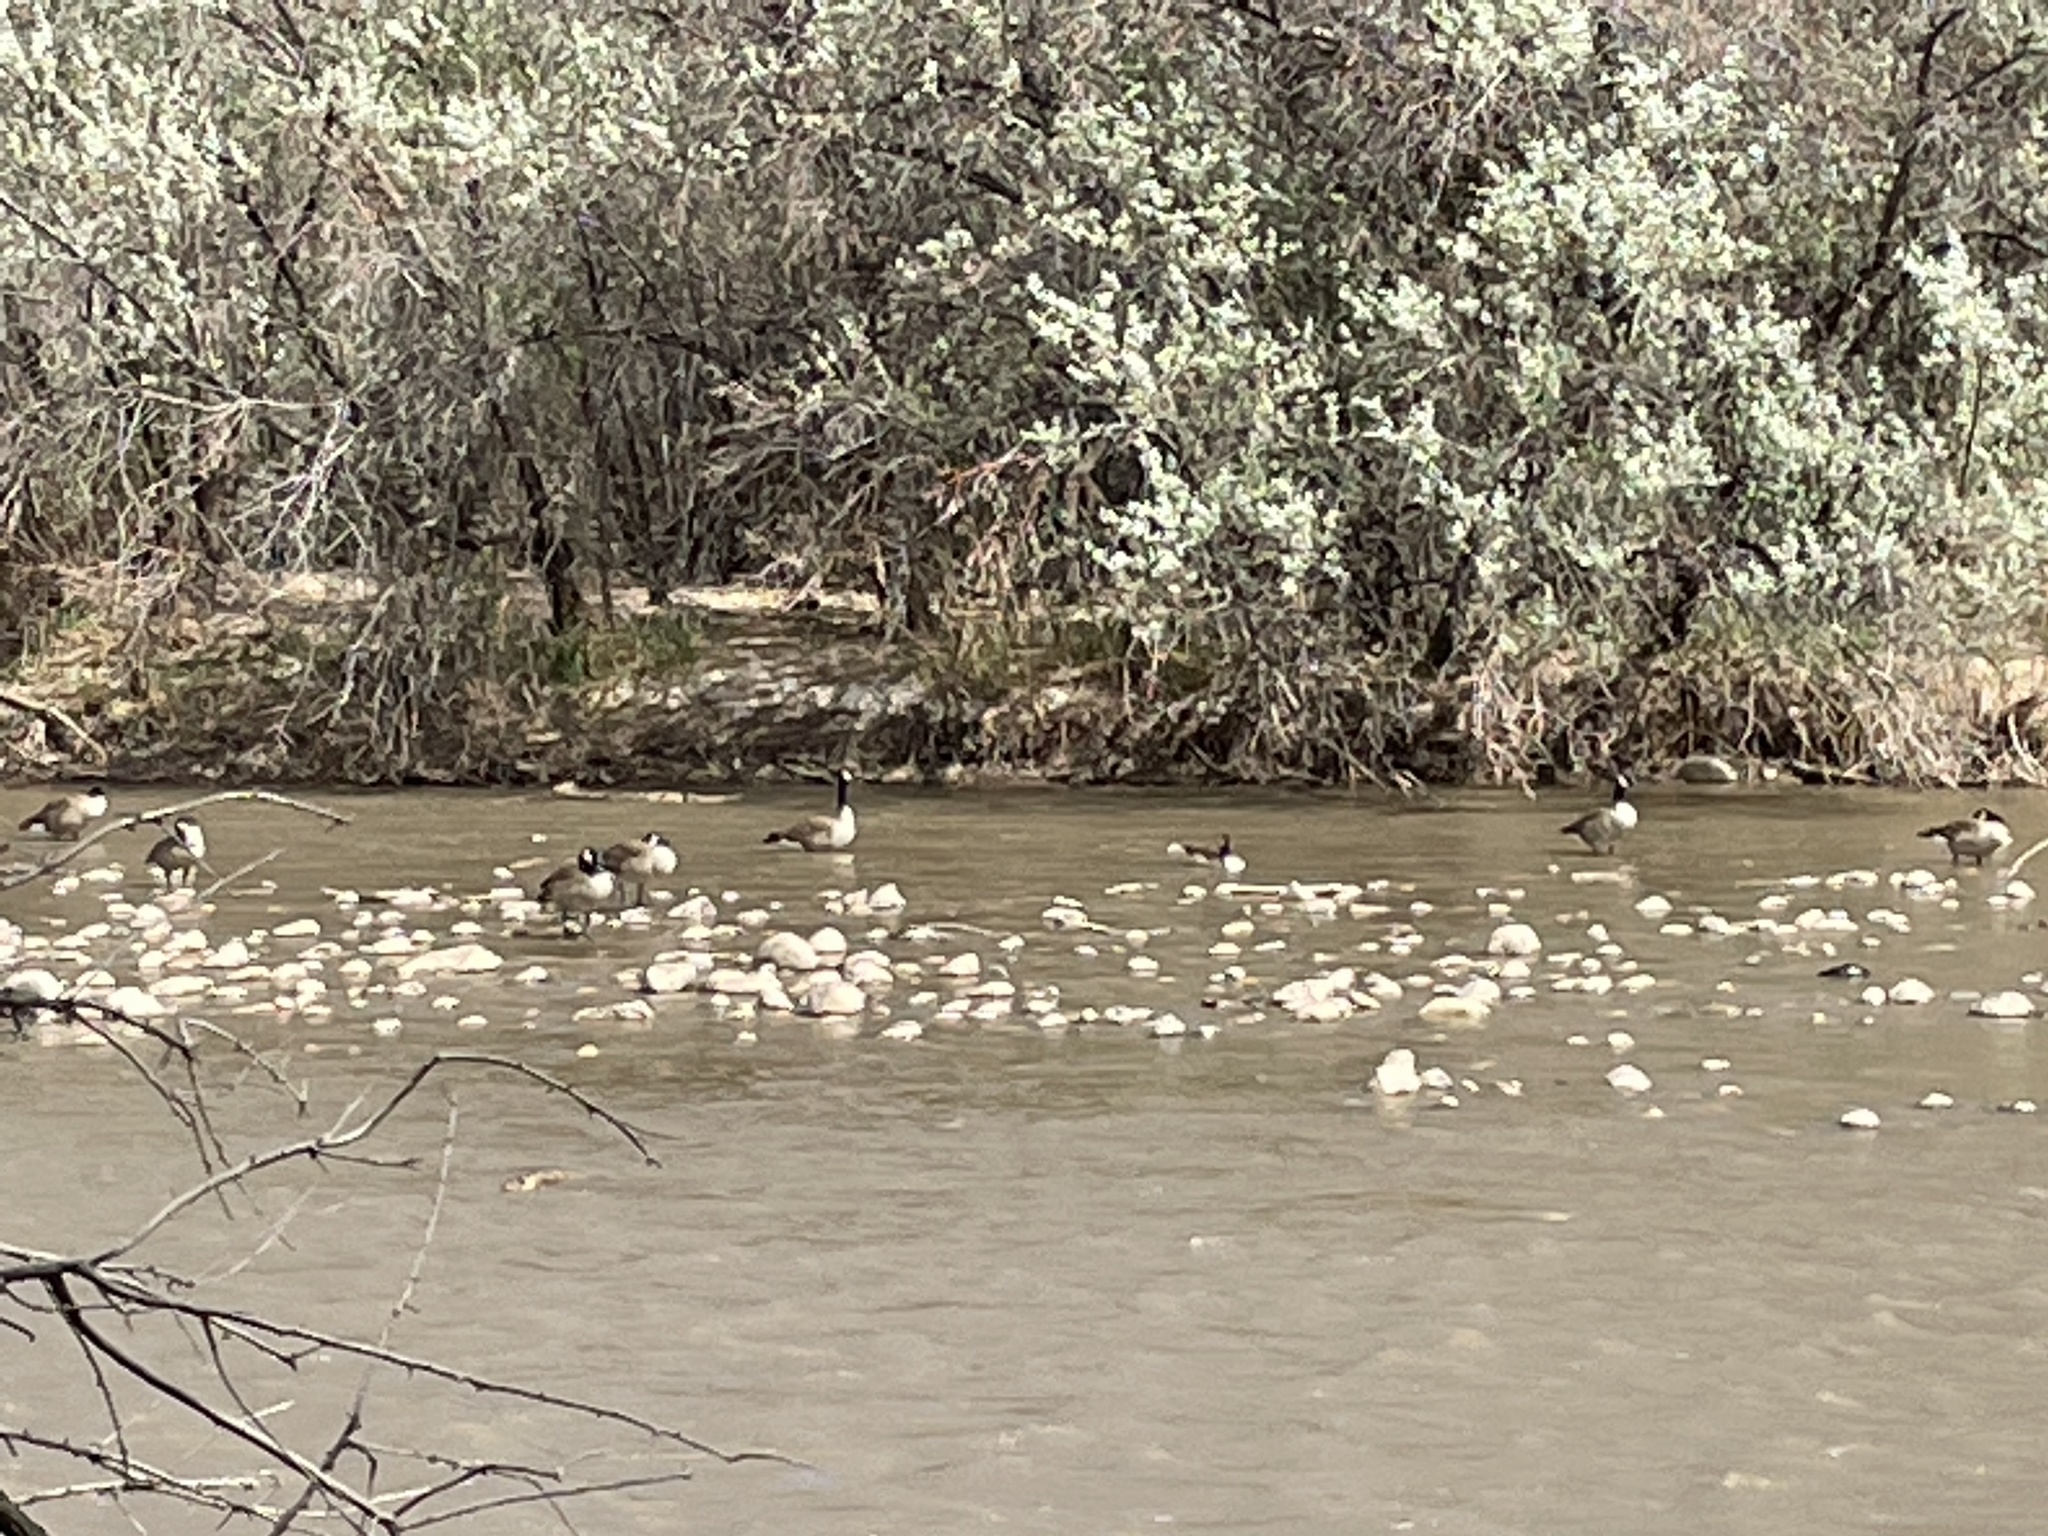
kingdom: Animalia
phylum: Chordata
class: Aves
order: Anseriformes
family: Anatidae
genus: Branta
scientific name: Branta canadensis
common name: Canada goose
